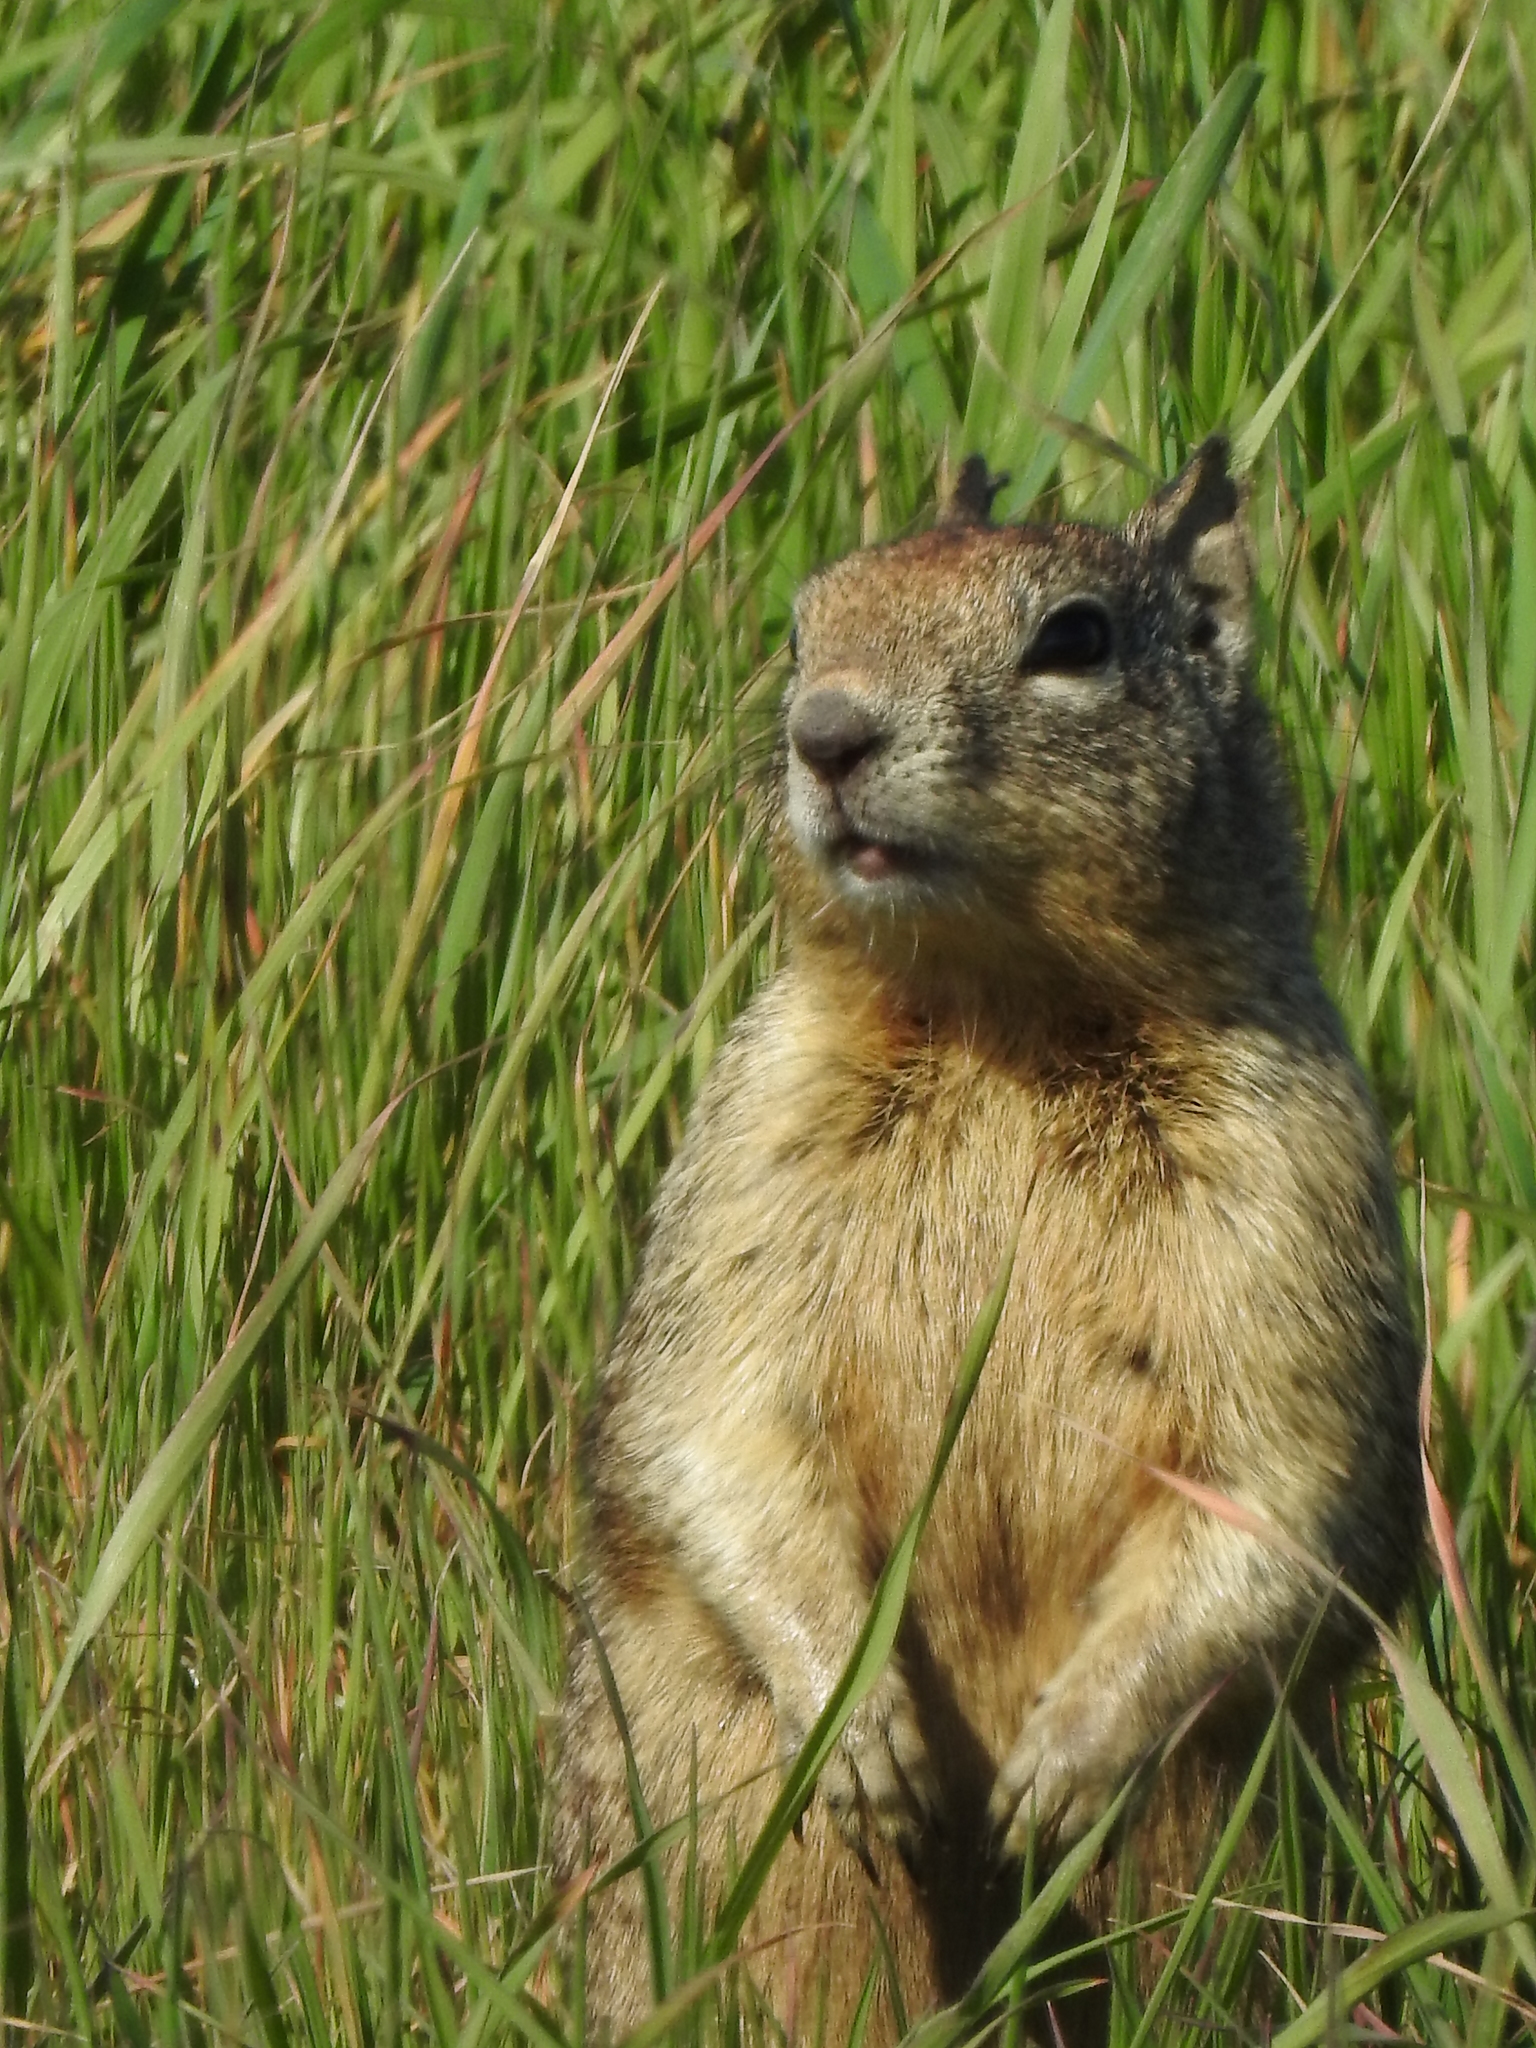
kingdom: Animalia
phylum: Chordata
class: Mammalia
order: Rodentia
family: Sciuridae
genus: Otospermophilus
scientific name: Otospermophilus beecheyi
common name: California ground squirrel
